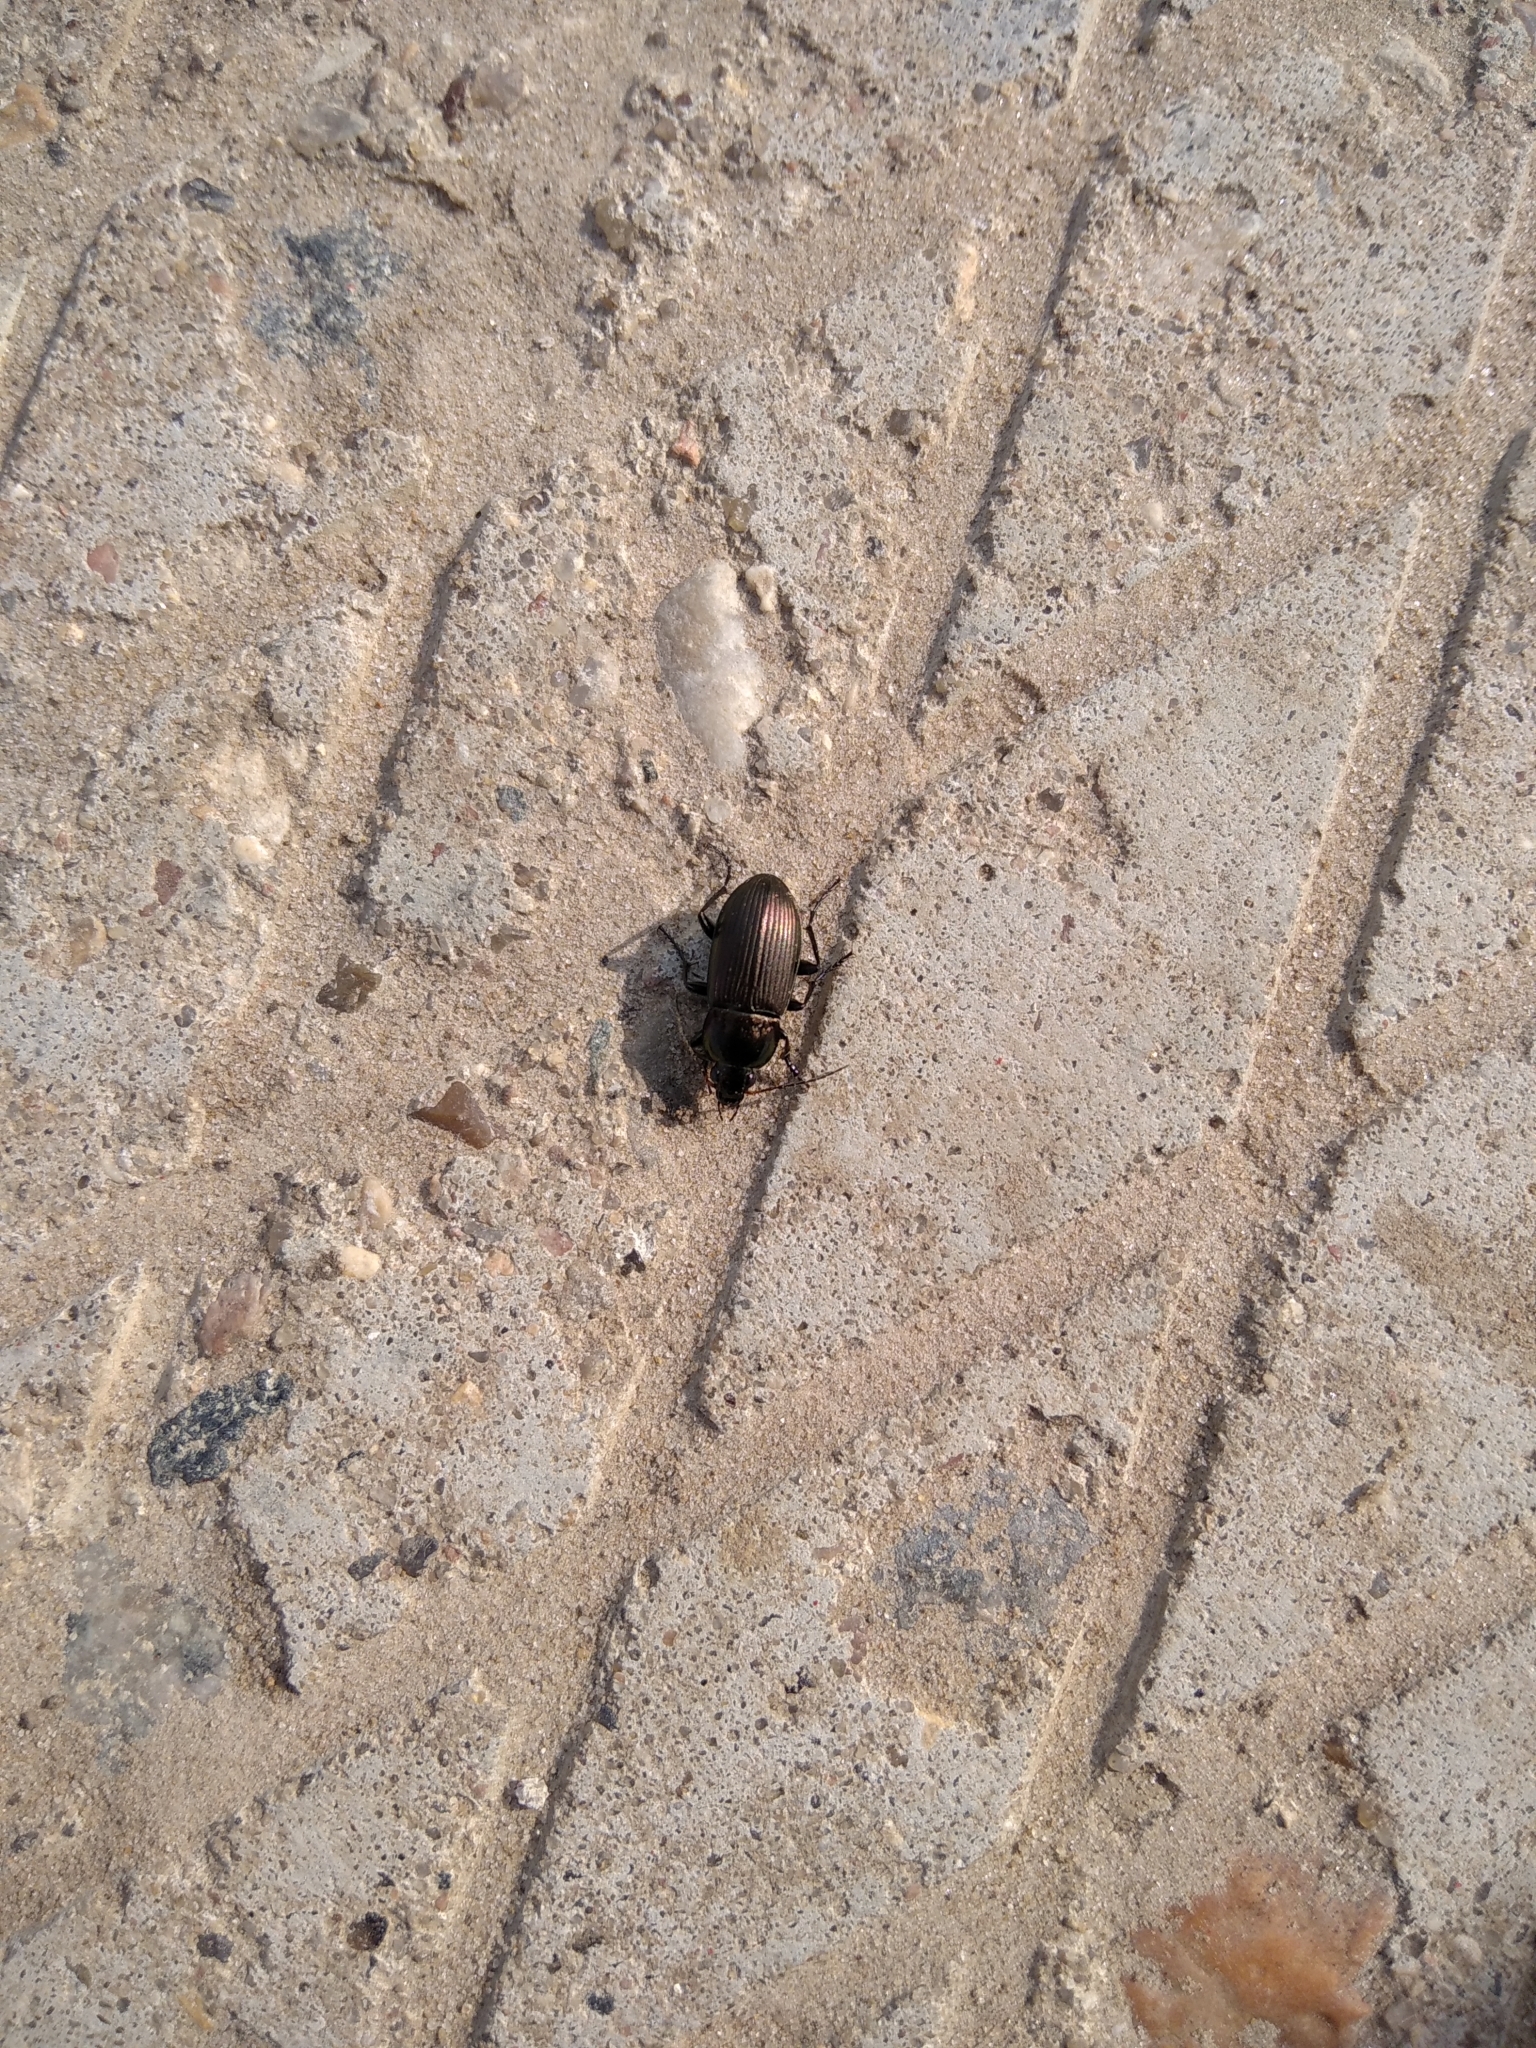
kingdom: Animalia
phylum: Arthropoda
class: Insecta
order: Coleoptera
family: Carabidae
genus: Poecilus
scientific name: Poecilus
